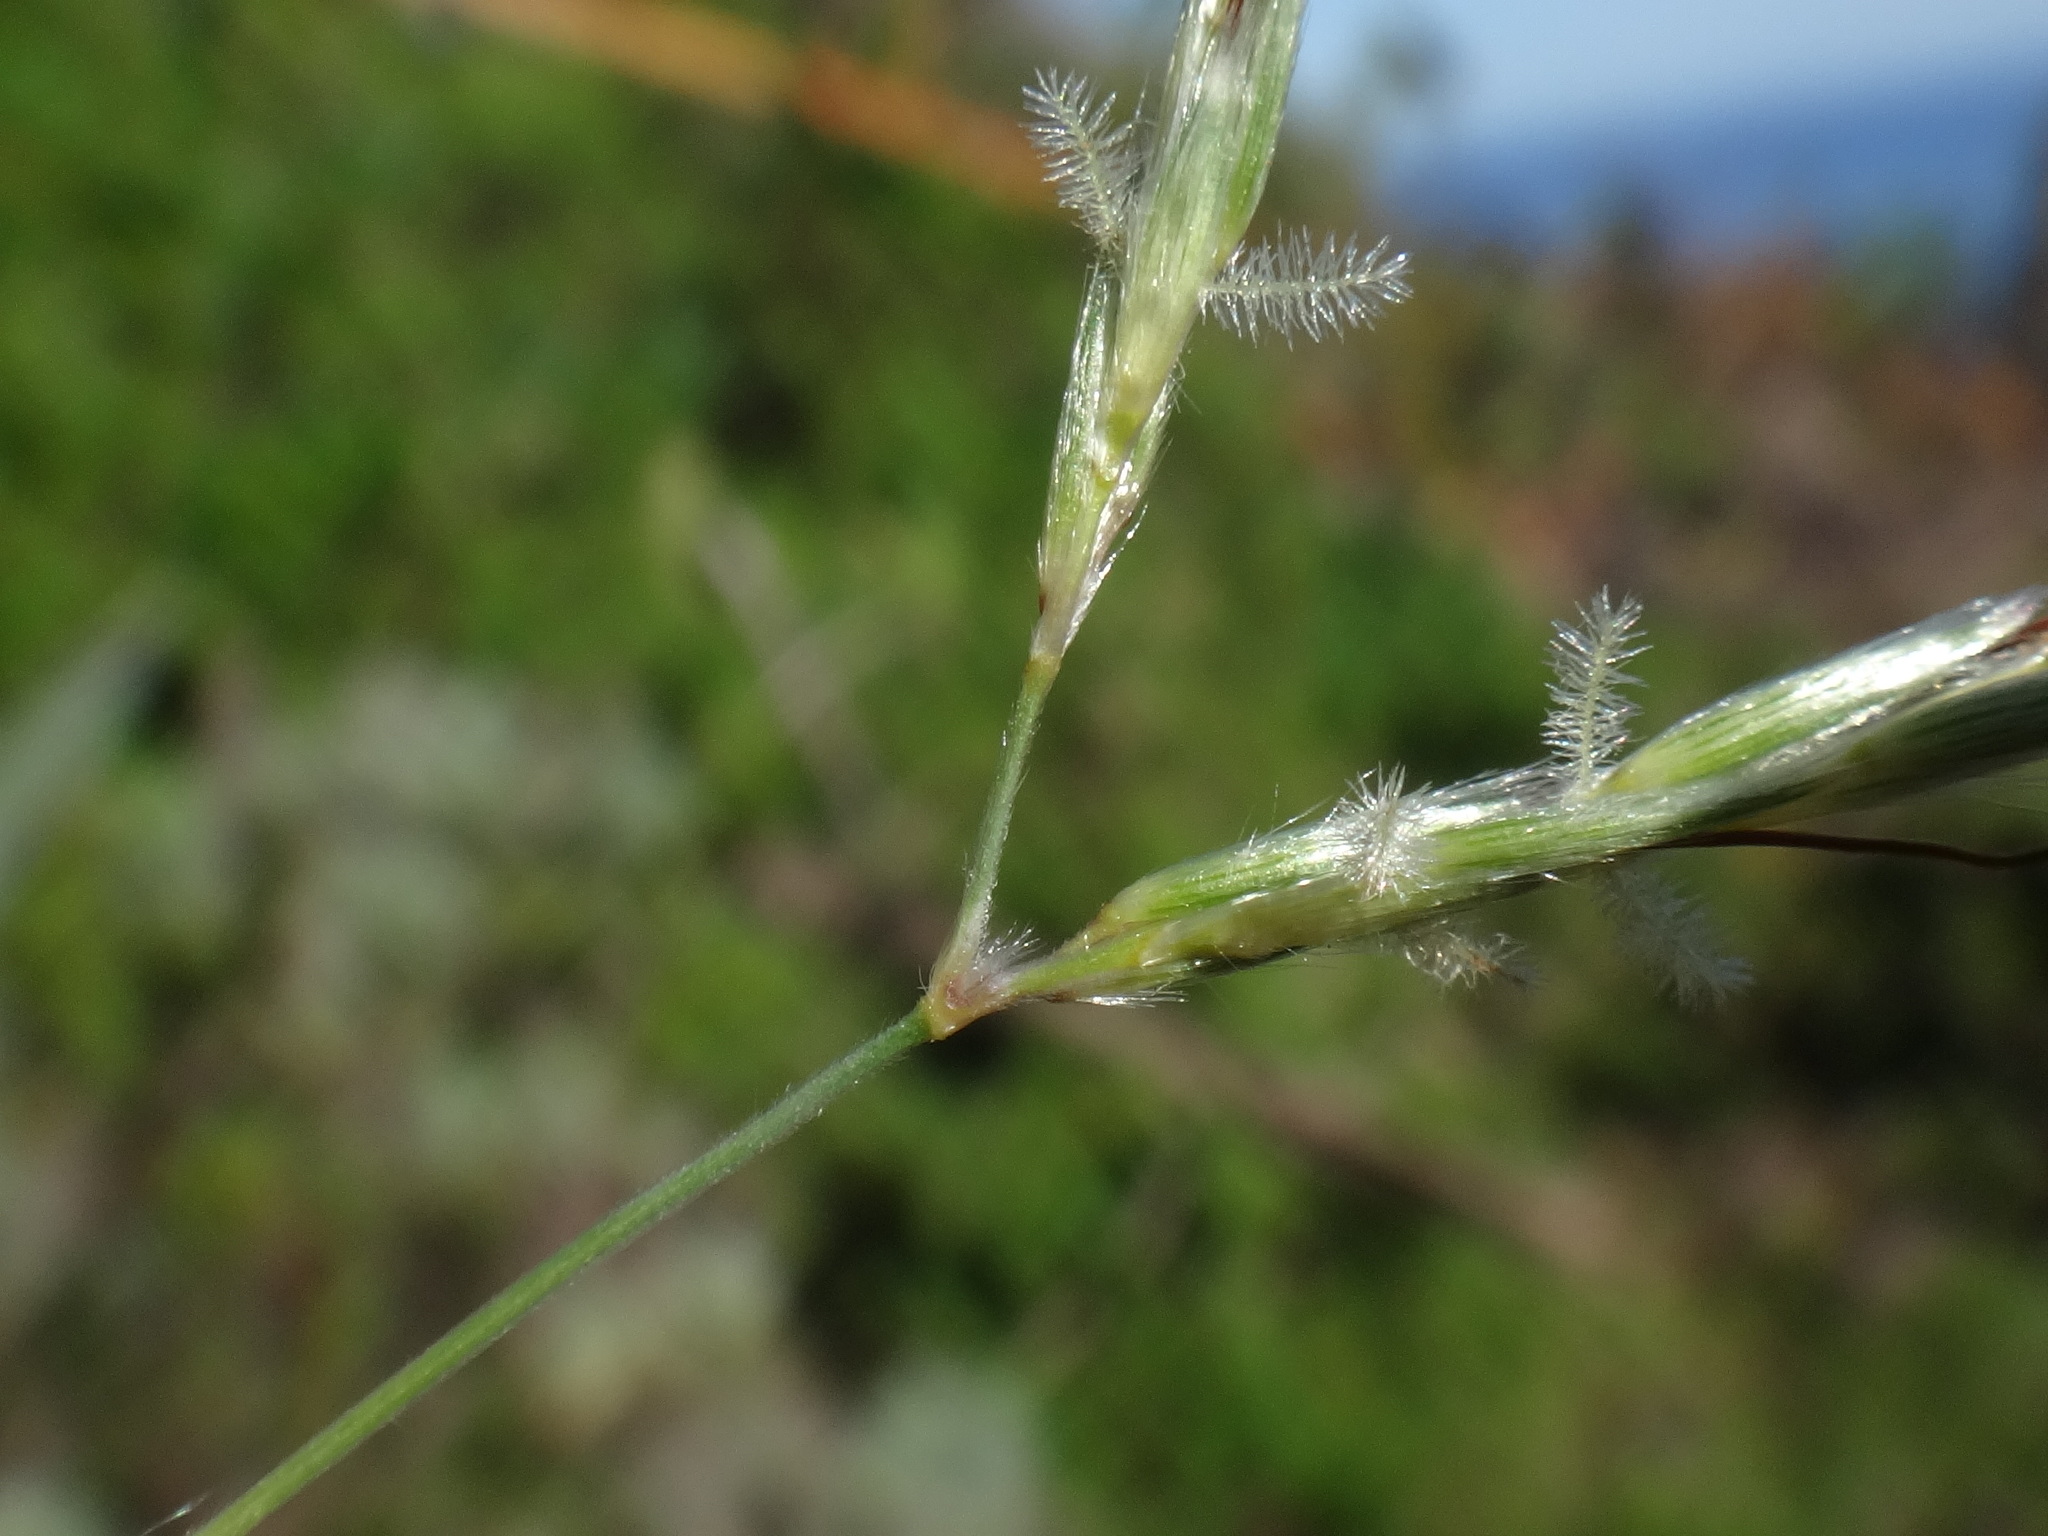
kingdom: Plantae
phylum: Tracheophyta
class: Liliopsida
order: Poales
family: Poaceae
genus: Hyparrhenia
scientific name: Hyparrhenia hirta
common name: Thatching grass
